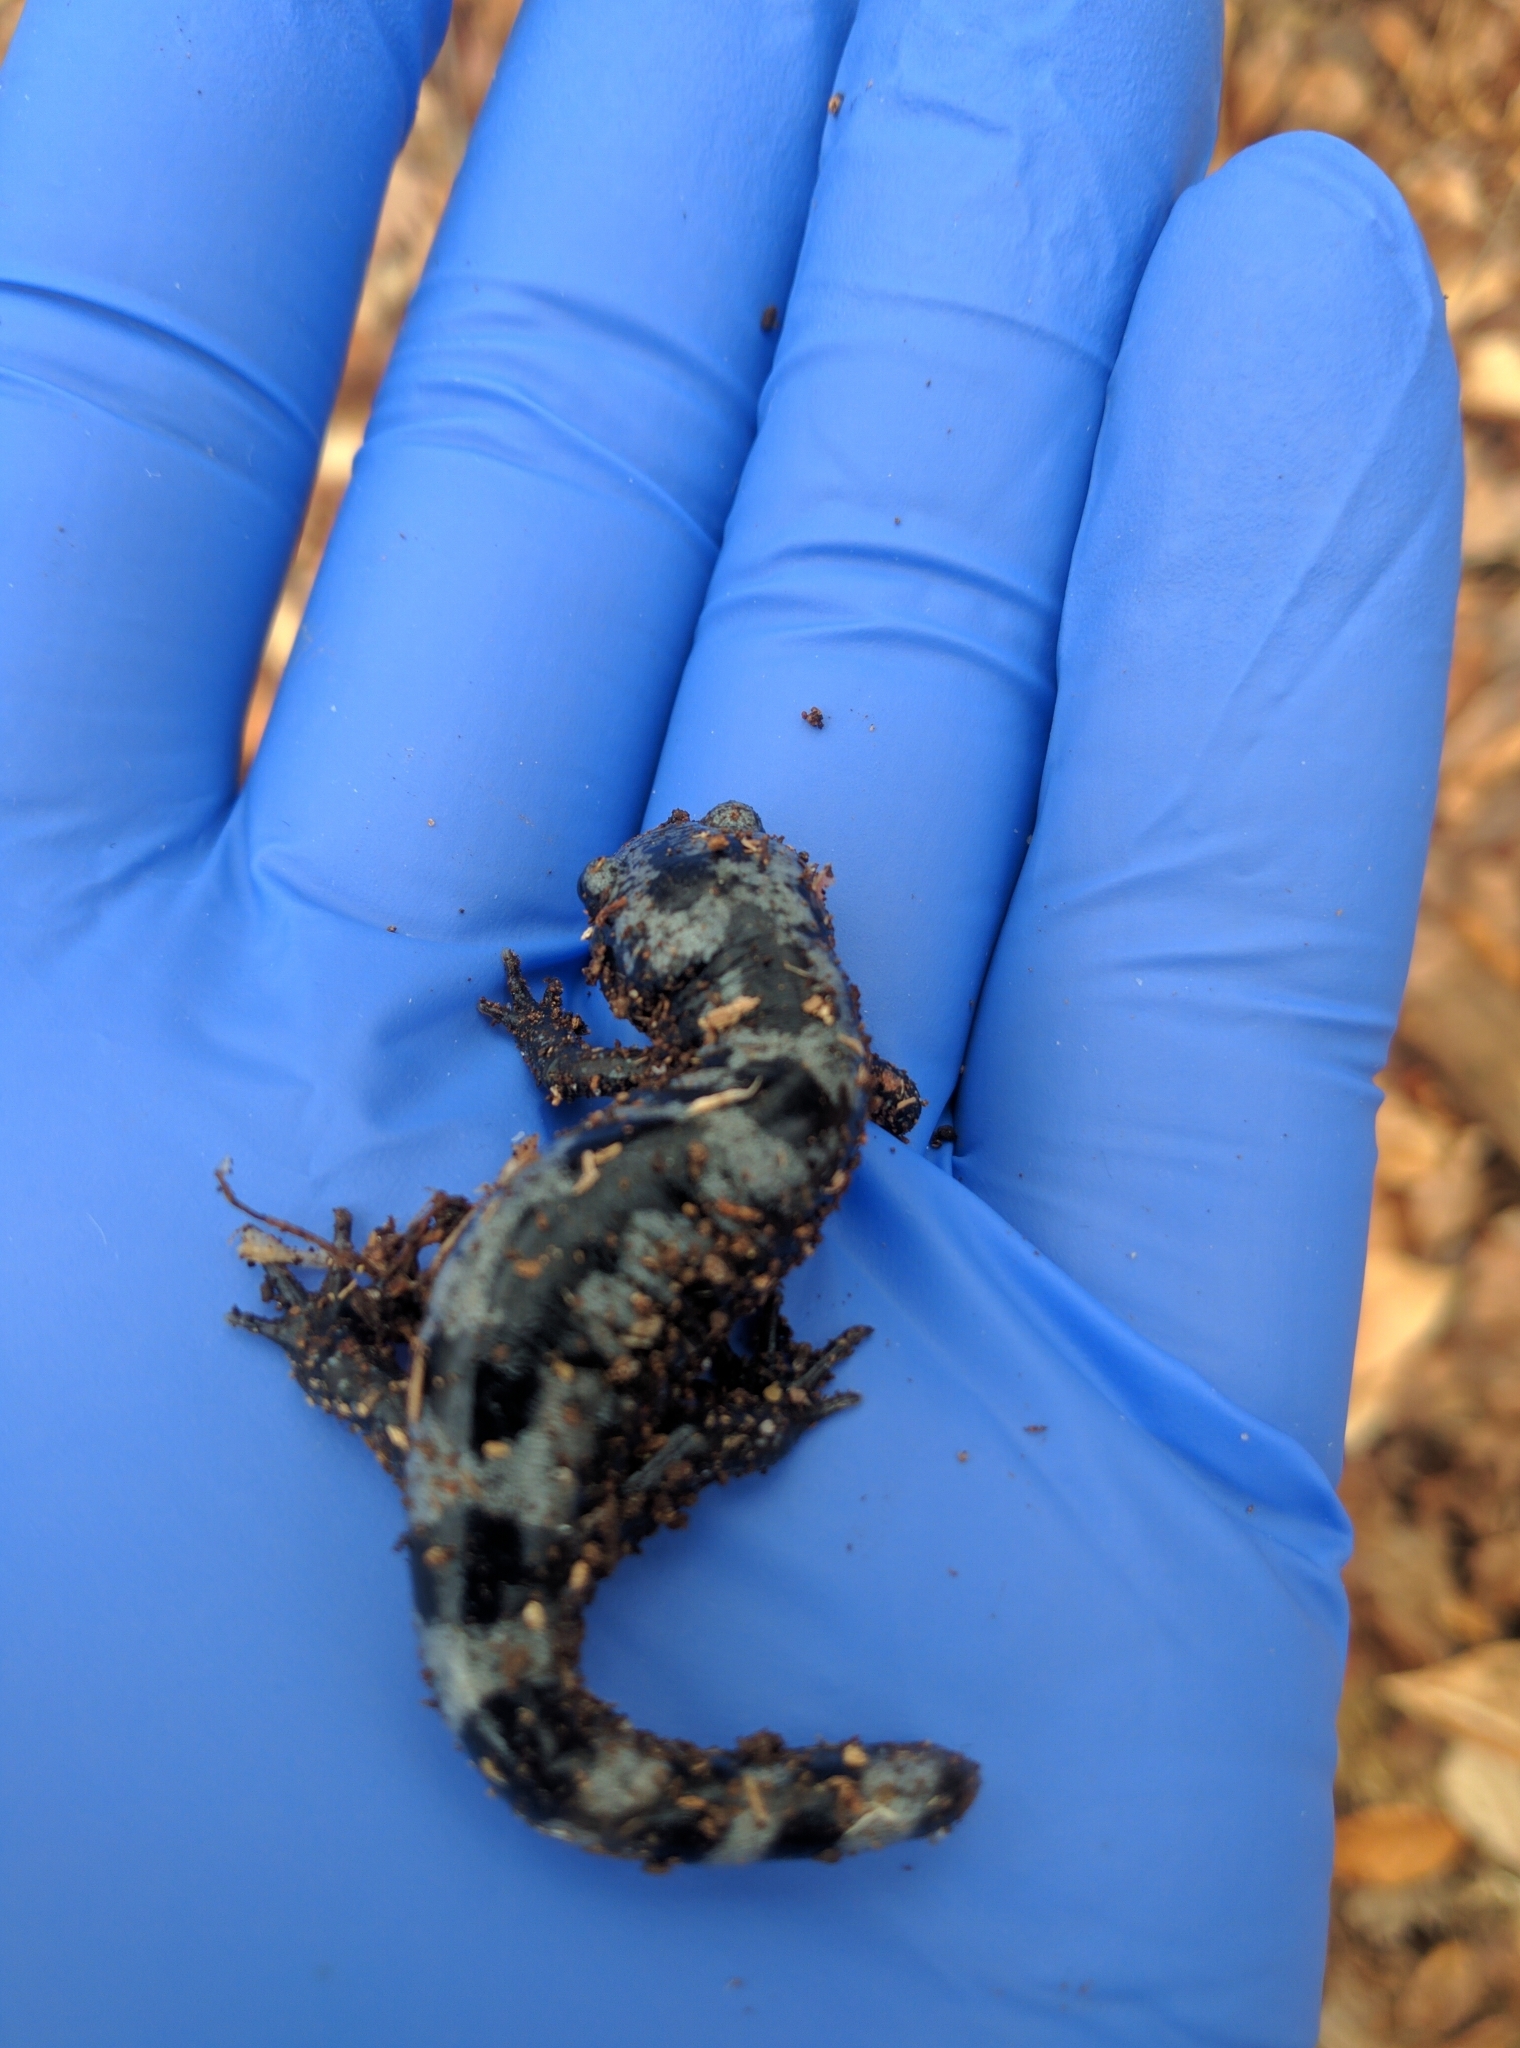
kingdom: Animalia
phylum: Chordata
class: Amphibia
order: Caudata
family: Ambystomatidae
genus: Ambystoma
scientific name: Ambystoma opacum
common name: Marbled salamander
